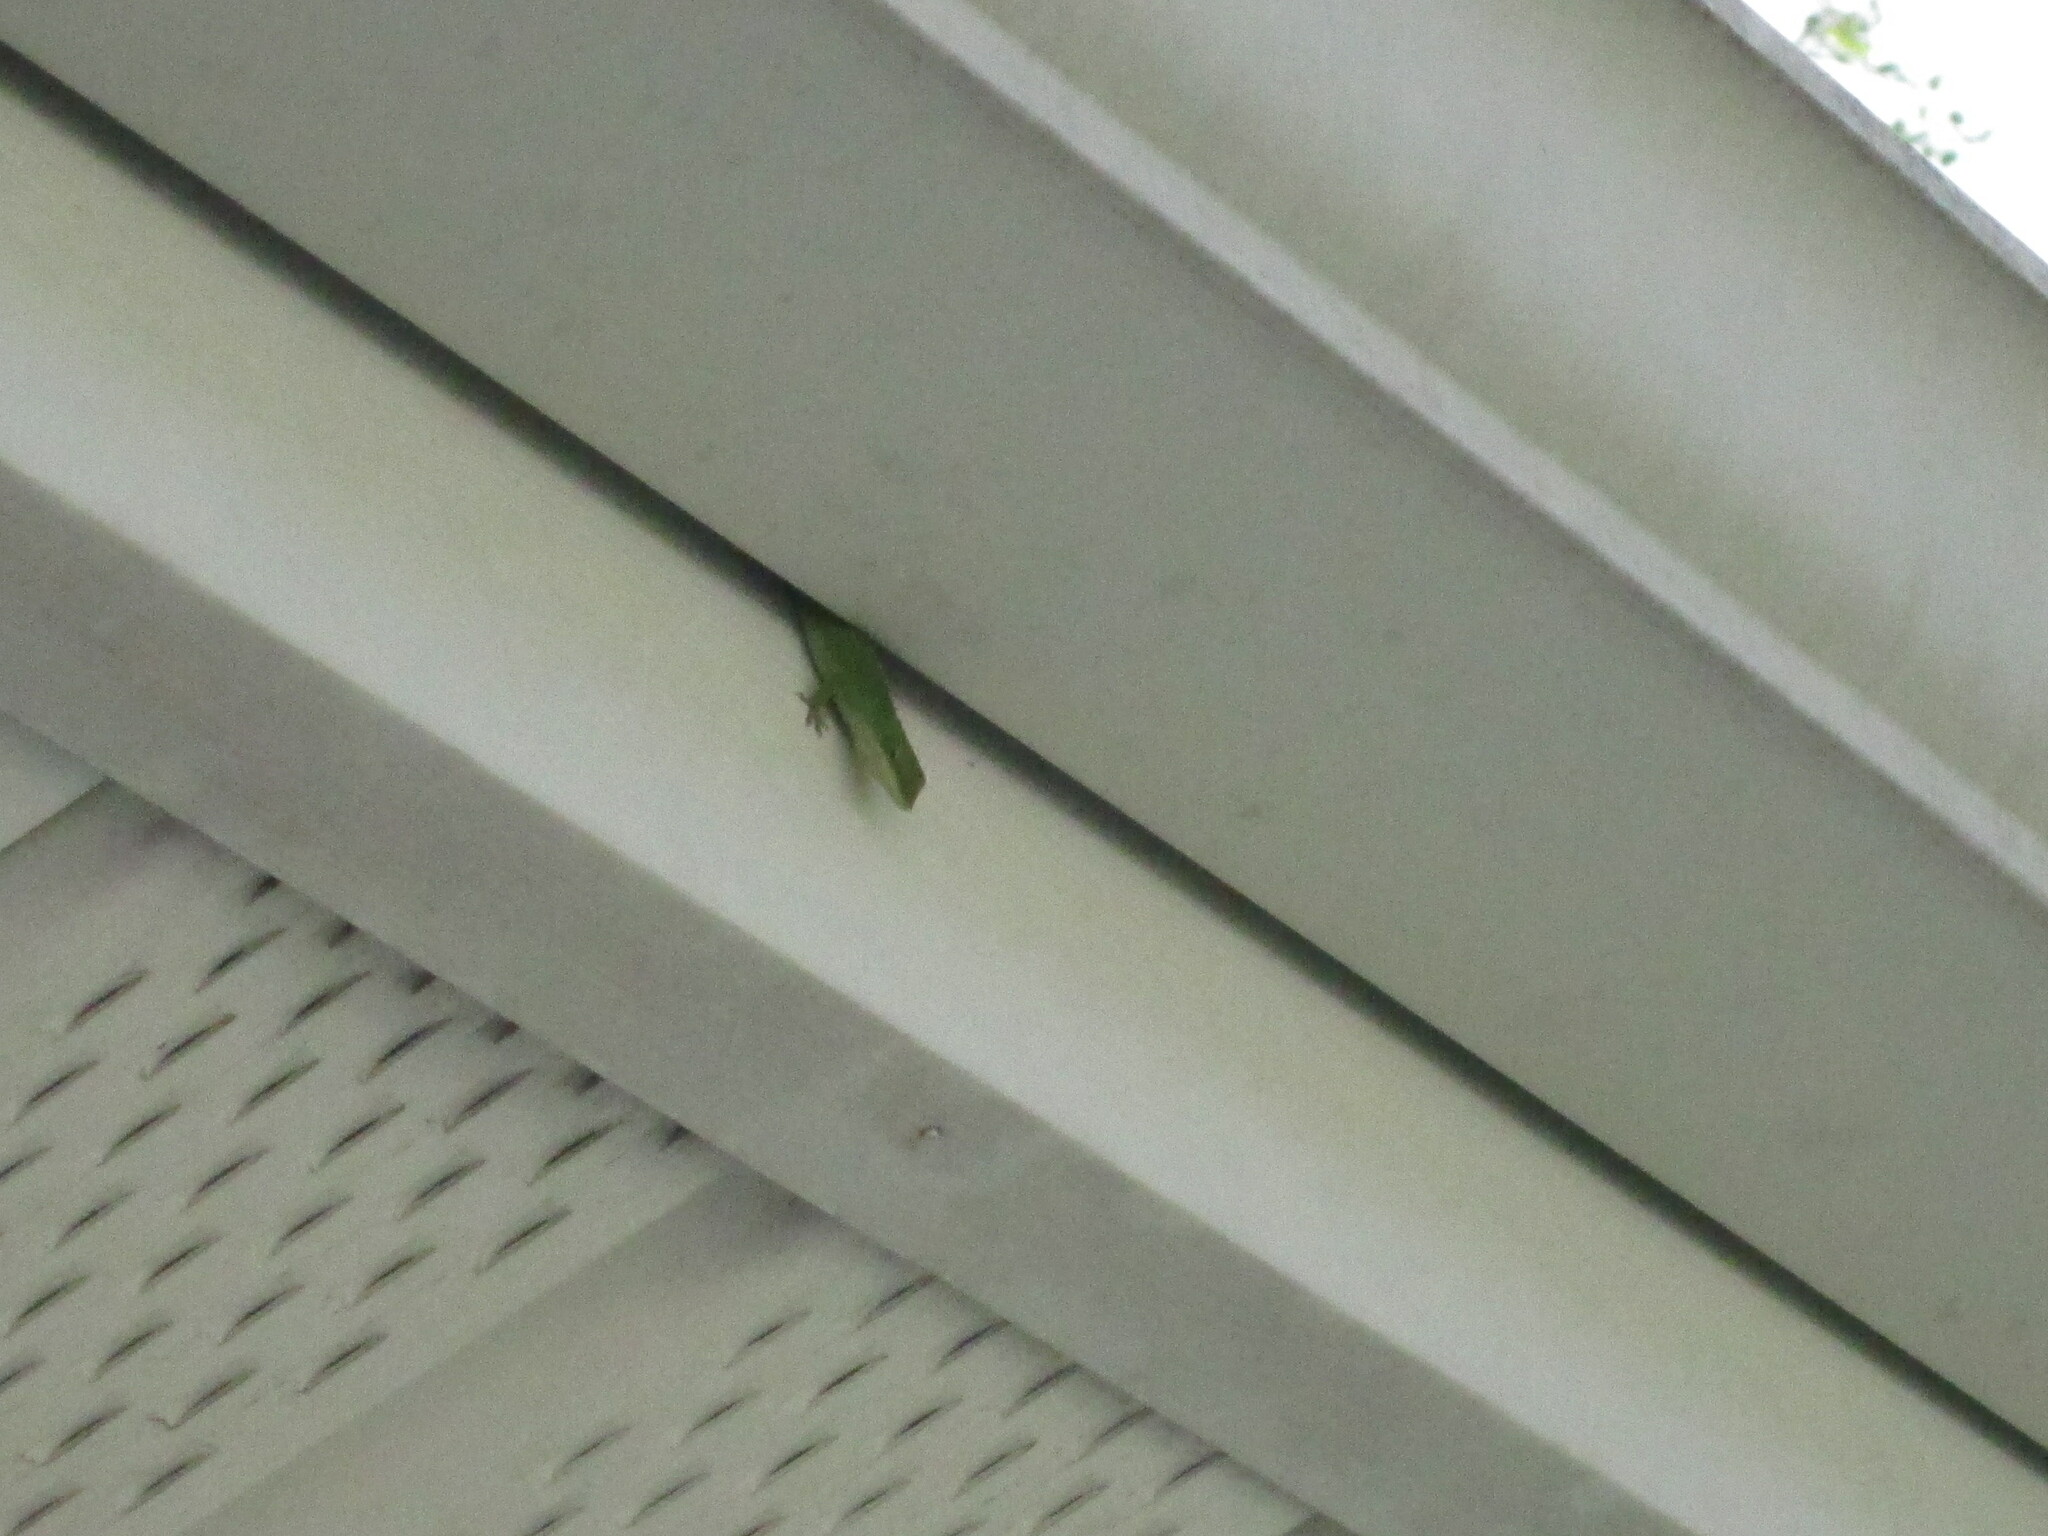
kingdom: Animalia
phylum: Chordata
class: Squamata
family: Dactyloidae
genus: Anolis
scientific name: Anolis carolinensis
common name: Green anole
